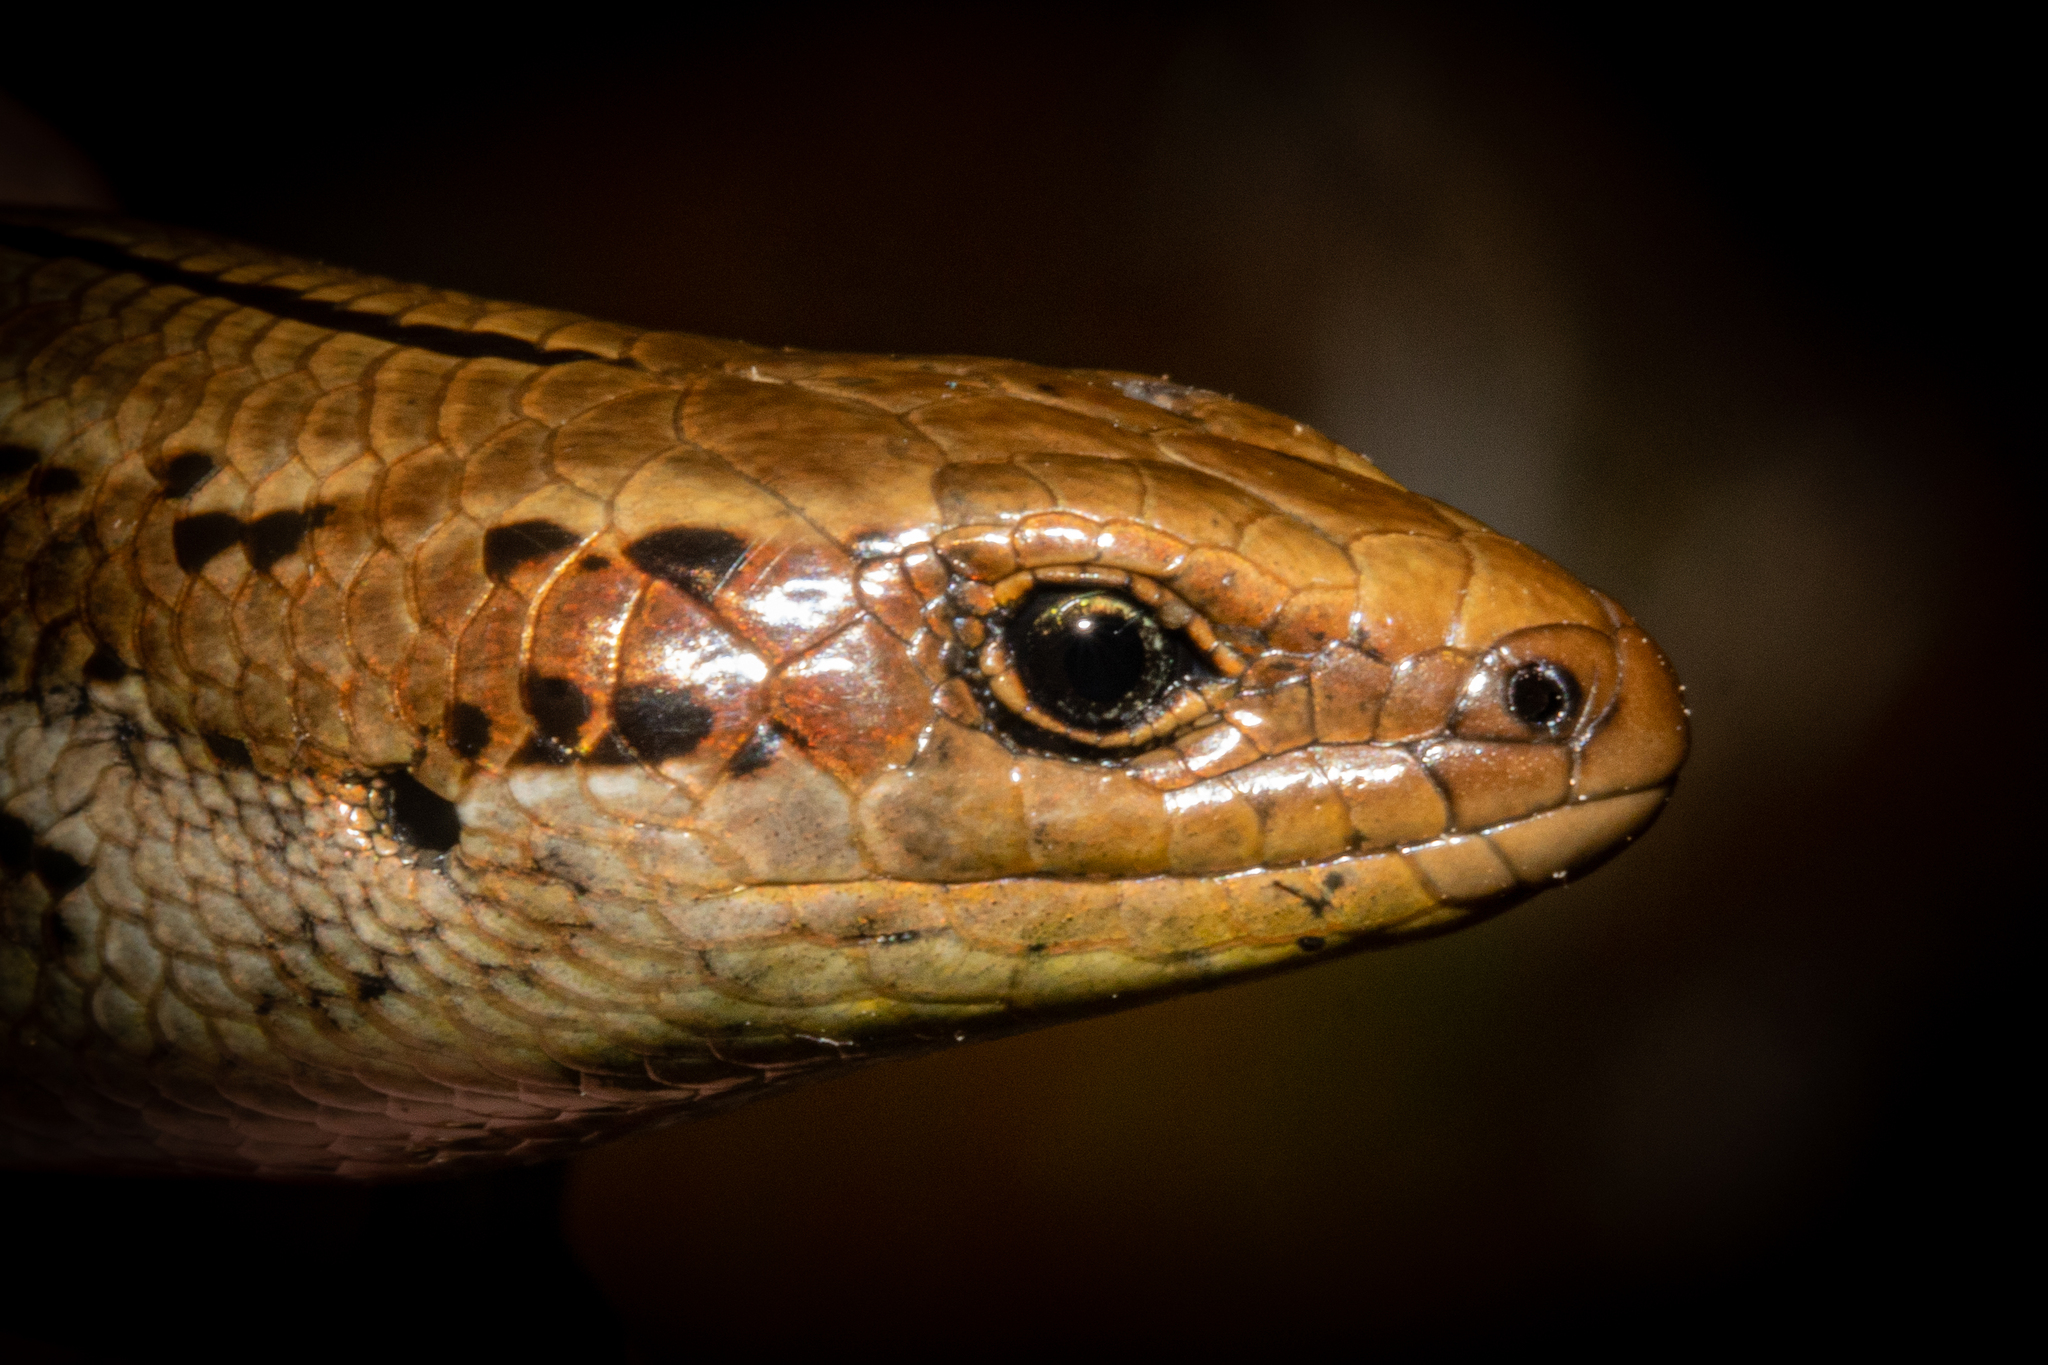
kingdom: Animalia
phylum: Chordata
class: Squamata
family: Scincidae
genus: Oligosoma
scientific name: Oligosoma stenotis
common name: Small-eared skink
